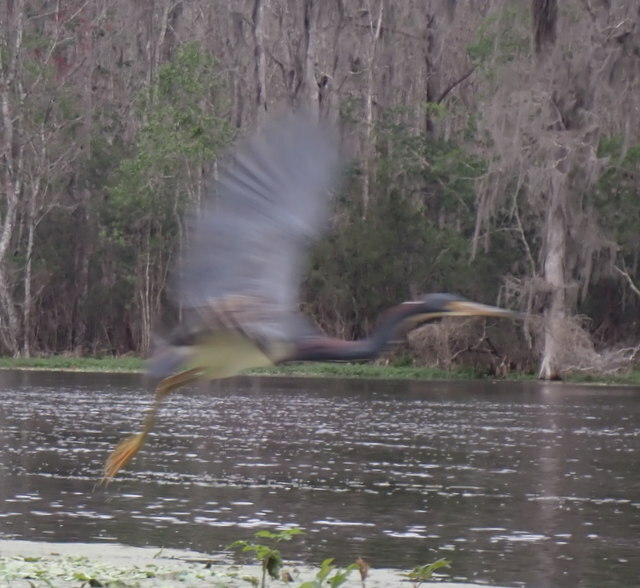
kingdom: Animalia
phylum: Chordata
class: Aves
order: Pelecaniformes
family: Ardeidae
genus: Egretta
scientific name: Egretta tricolor
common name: Tricolored heron
